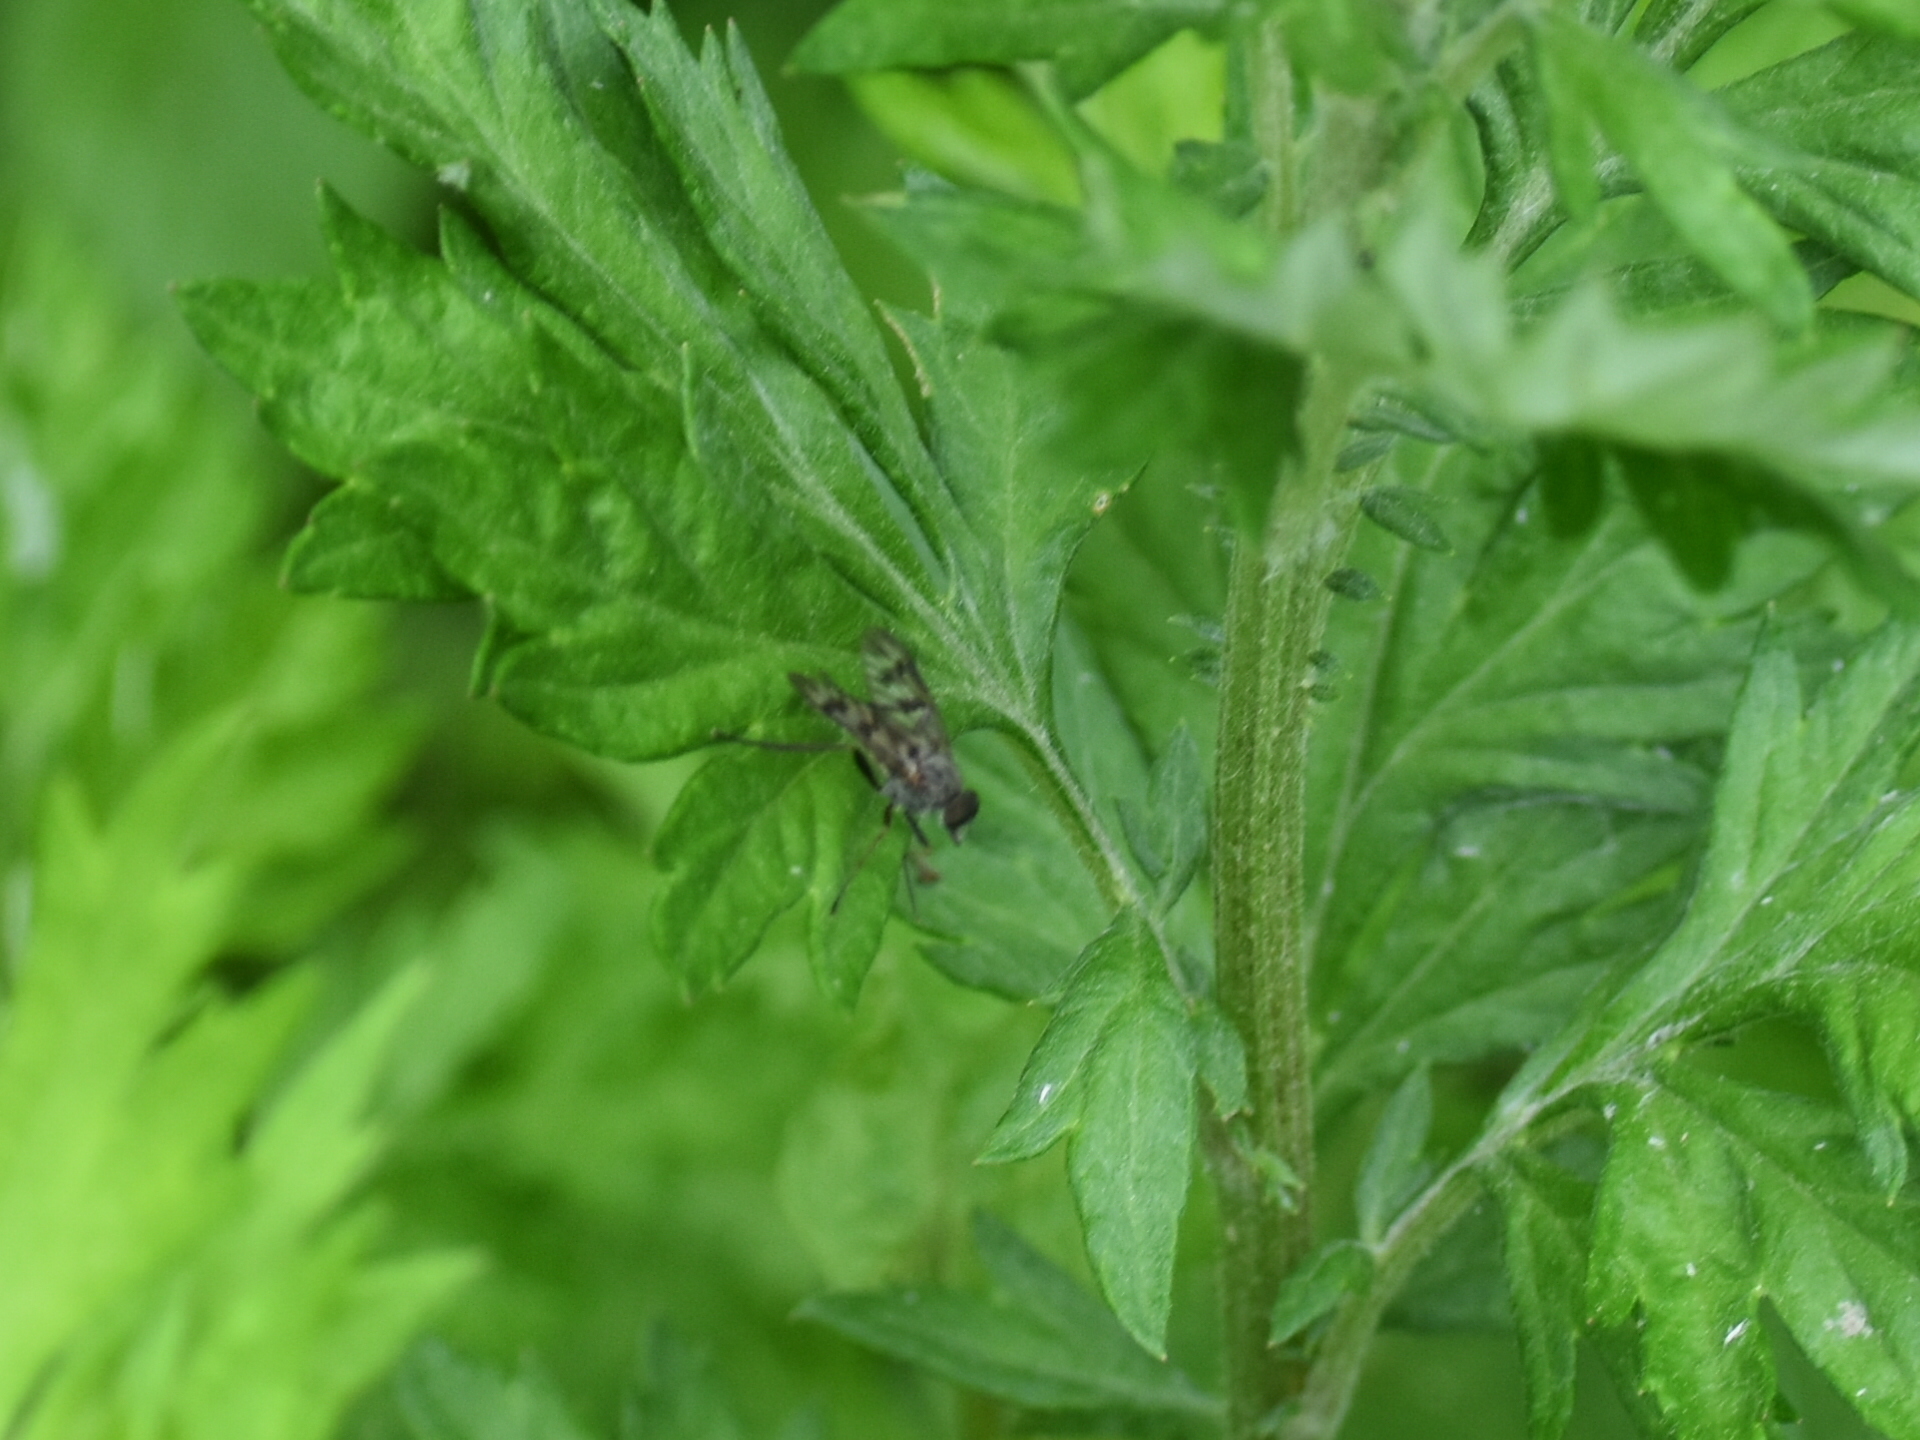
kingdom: Animalia
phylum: Arthropoda
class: Insecta
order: Diptera
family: Rhagionidae
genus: Rhagio
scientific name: Rhagio mystaceus
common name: Common snipe fly
